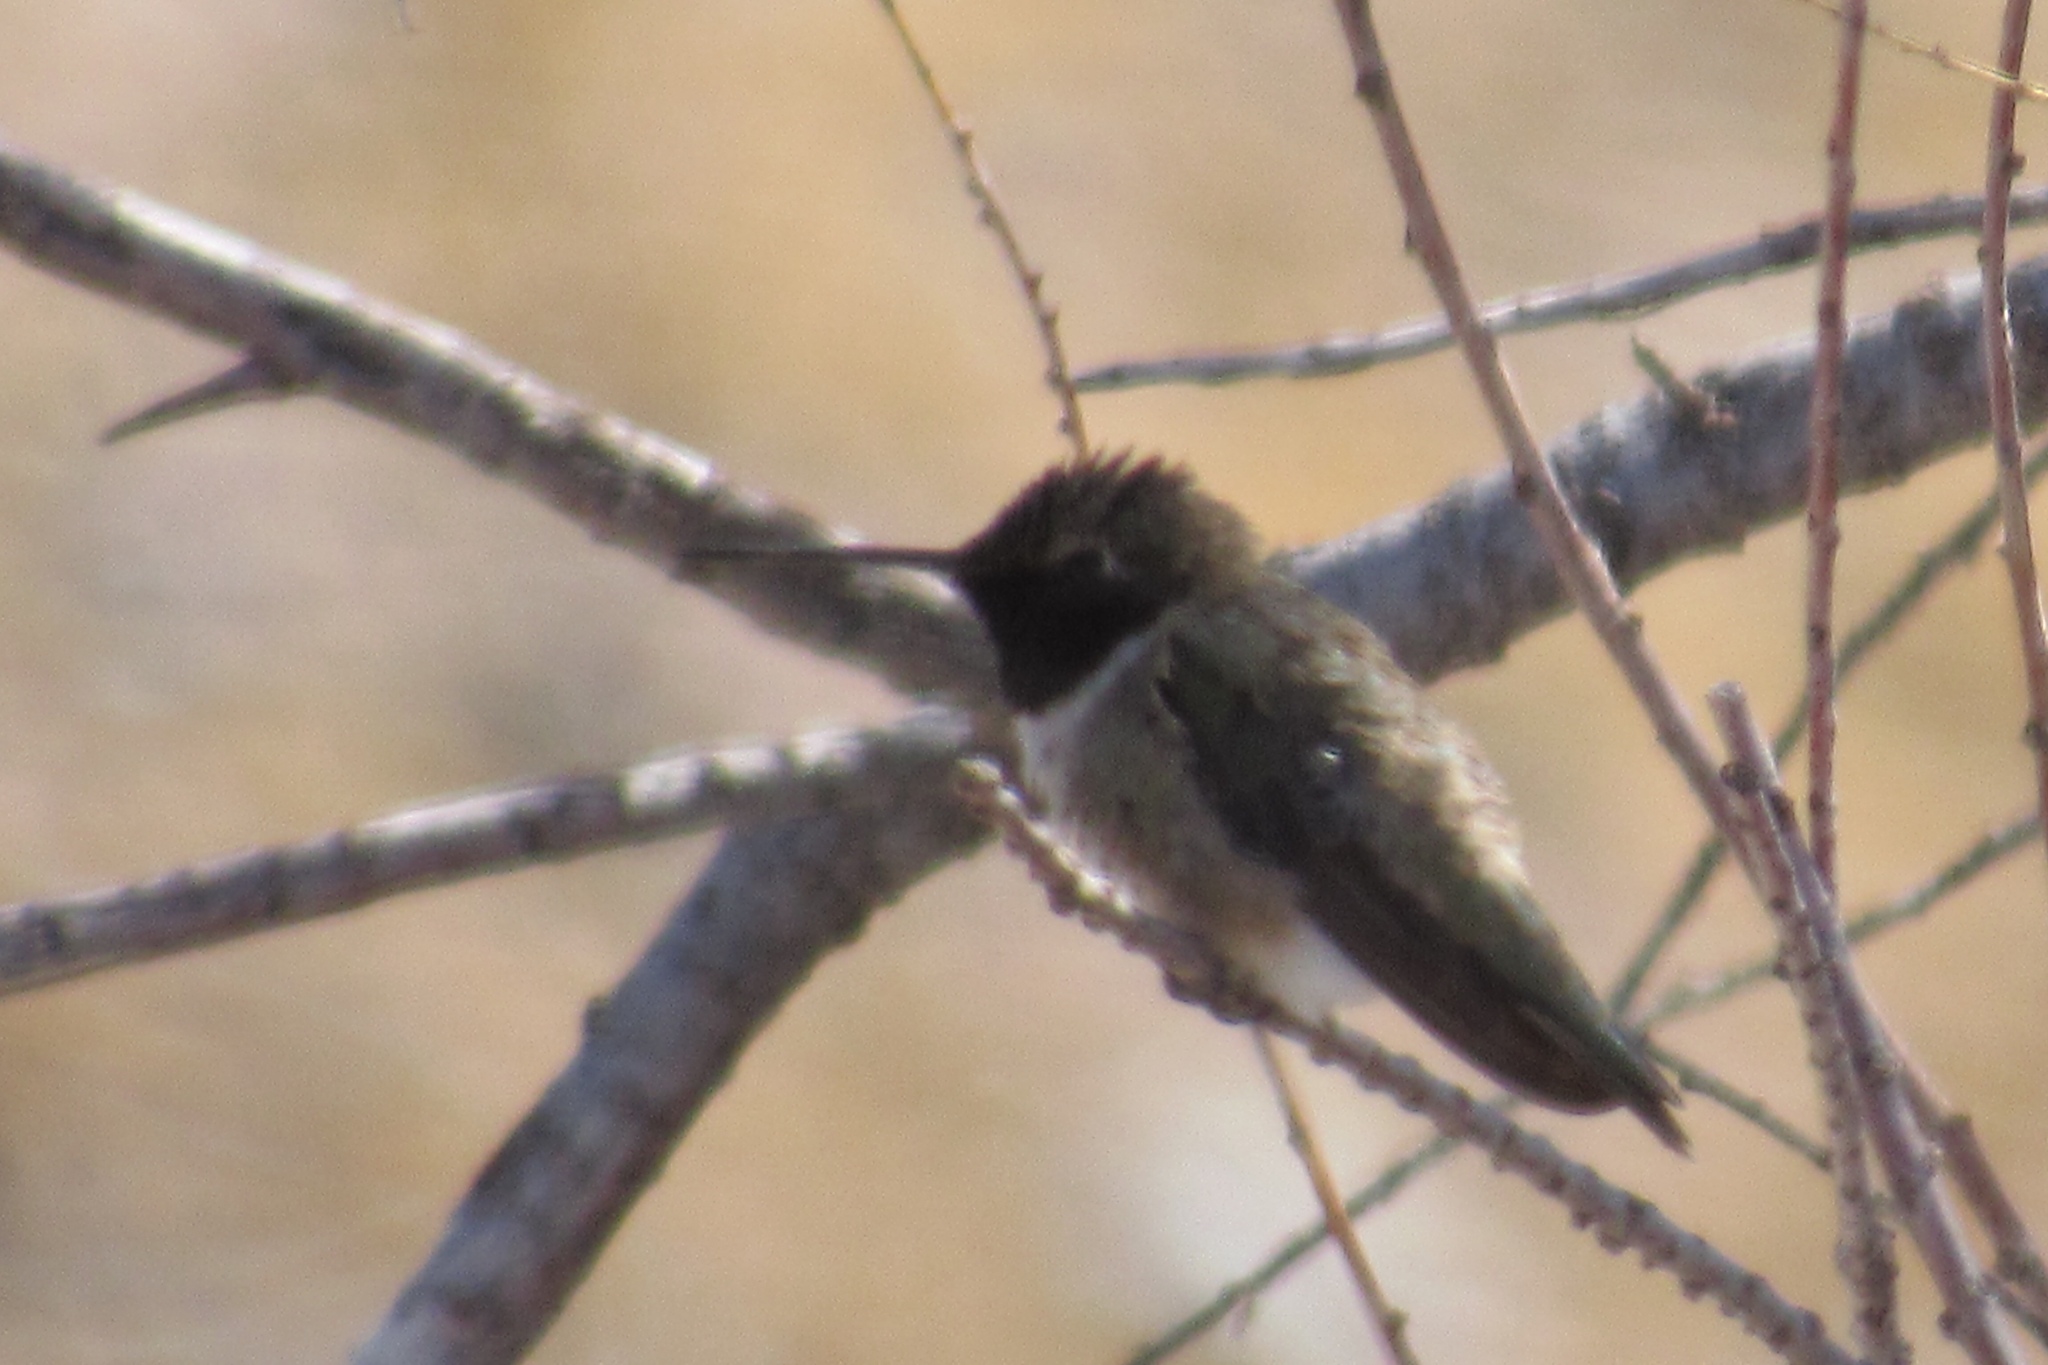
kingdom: Animalia
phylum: Chordata
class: Aves
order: Apodiformes
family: Trochilidae
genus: Archilochus
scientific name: Archilochus alexandri
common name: Black-chinned hummingbird
